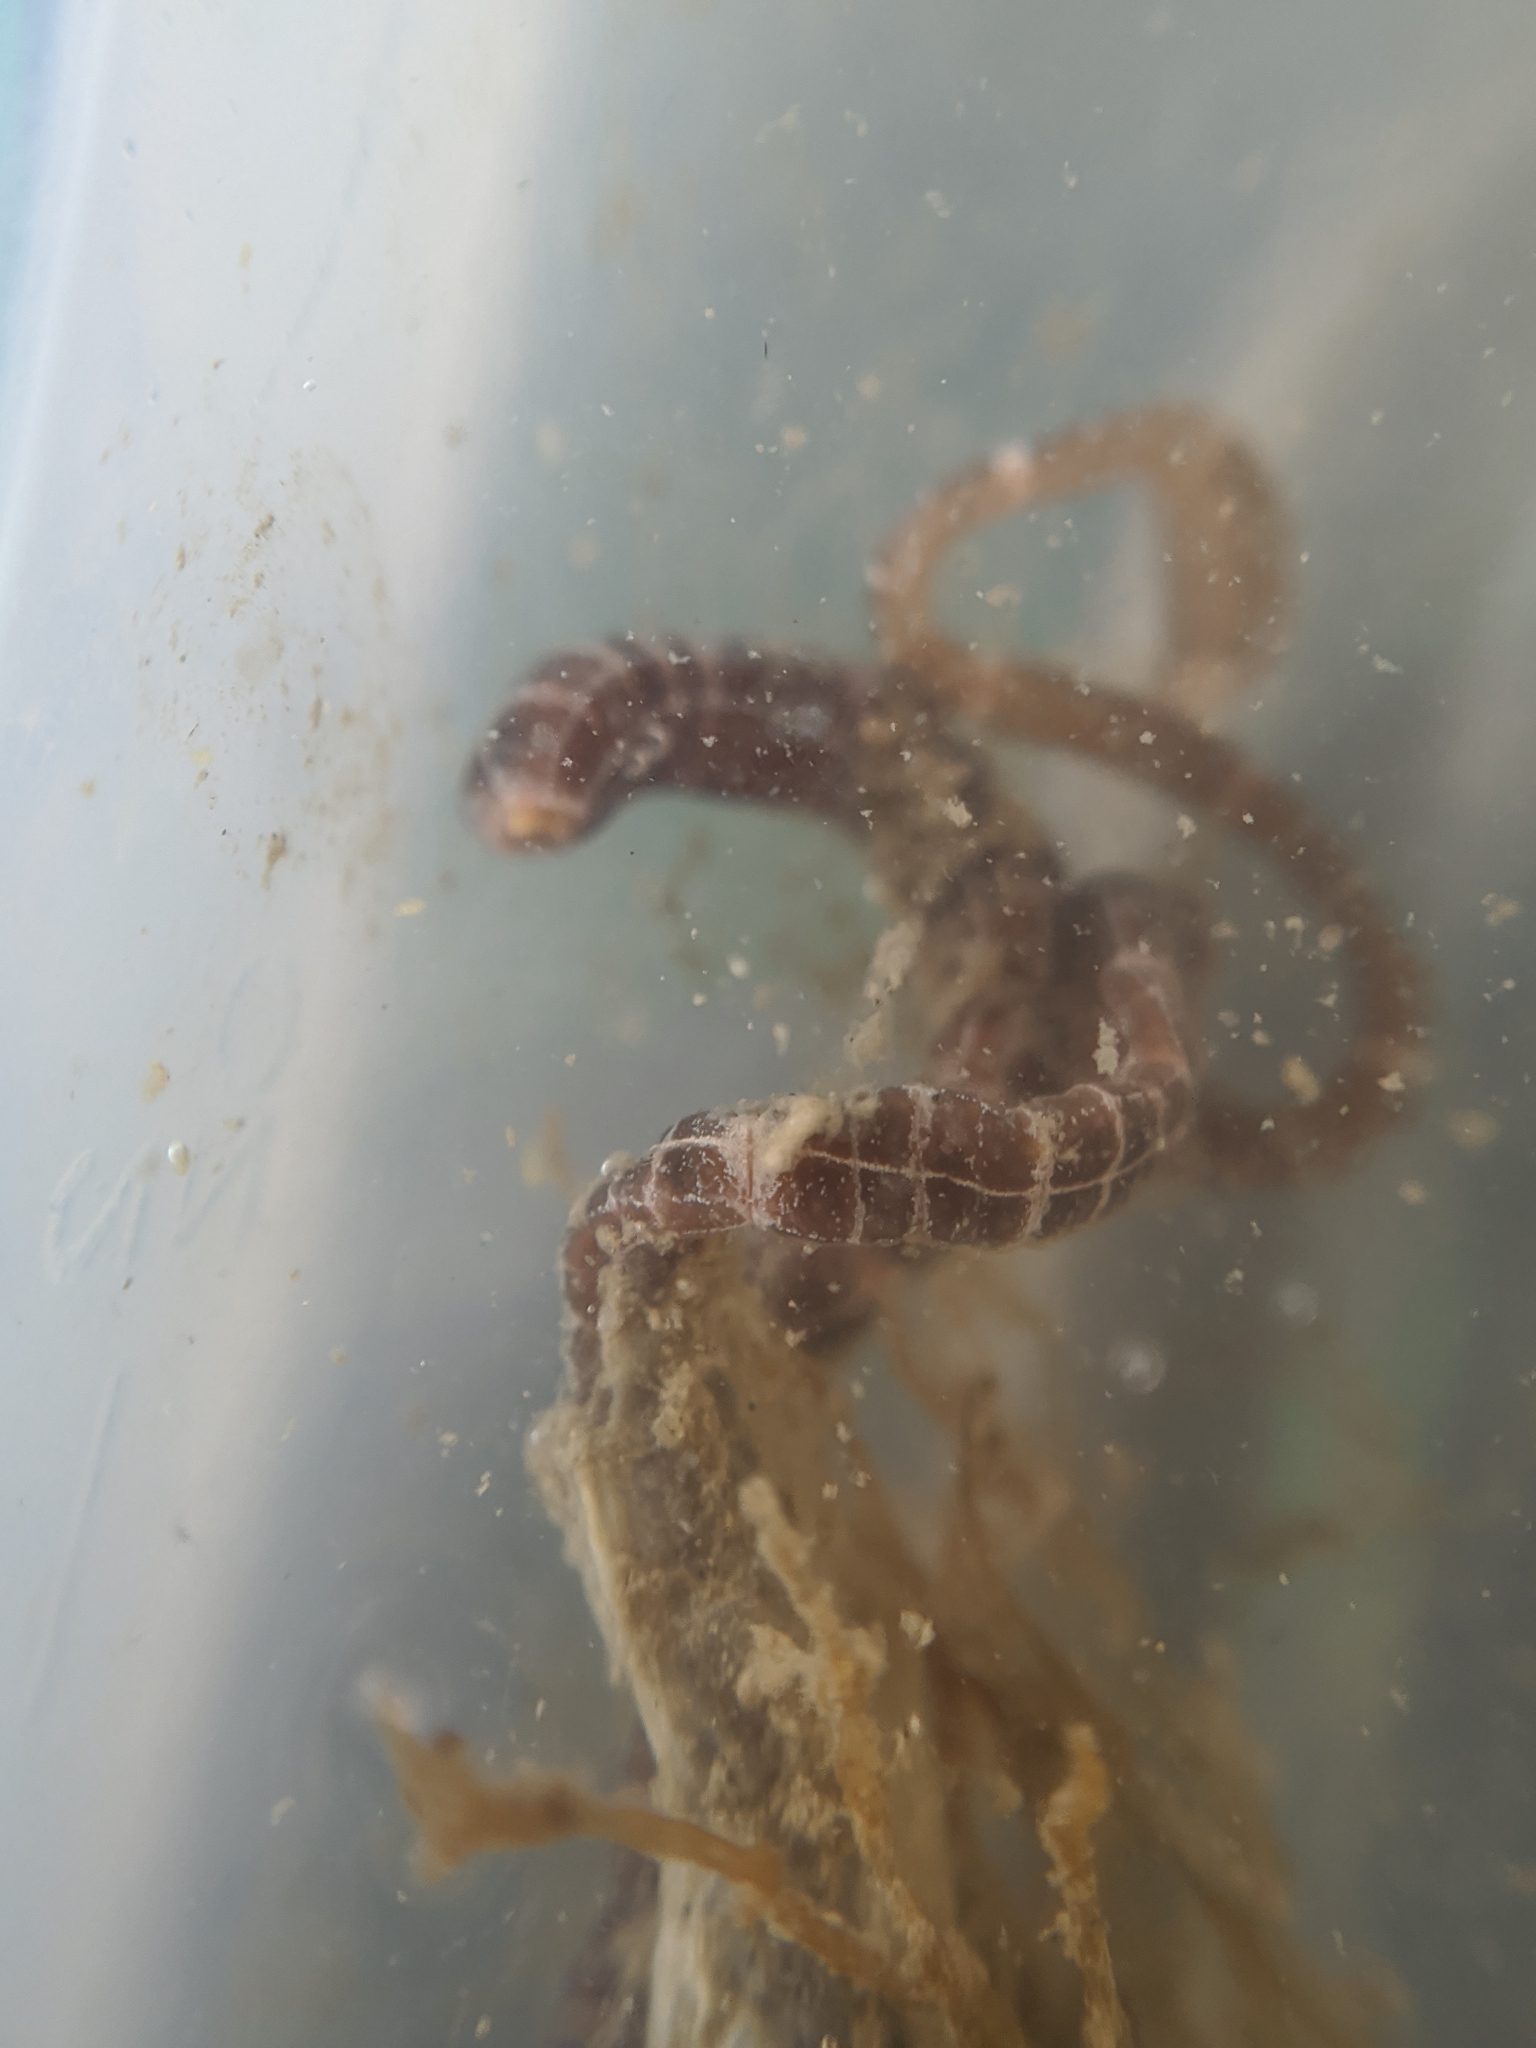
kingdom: Animalia
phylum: Nemertea
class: Palaeonemertea
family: Tubulanidae
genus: Tubulanus
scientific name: Tubulanus sexlineatus
